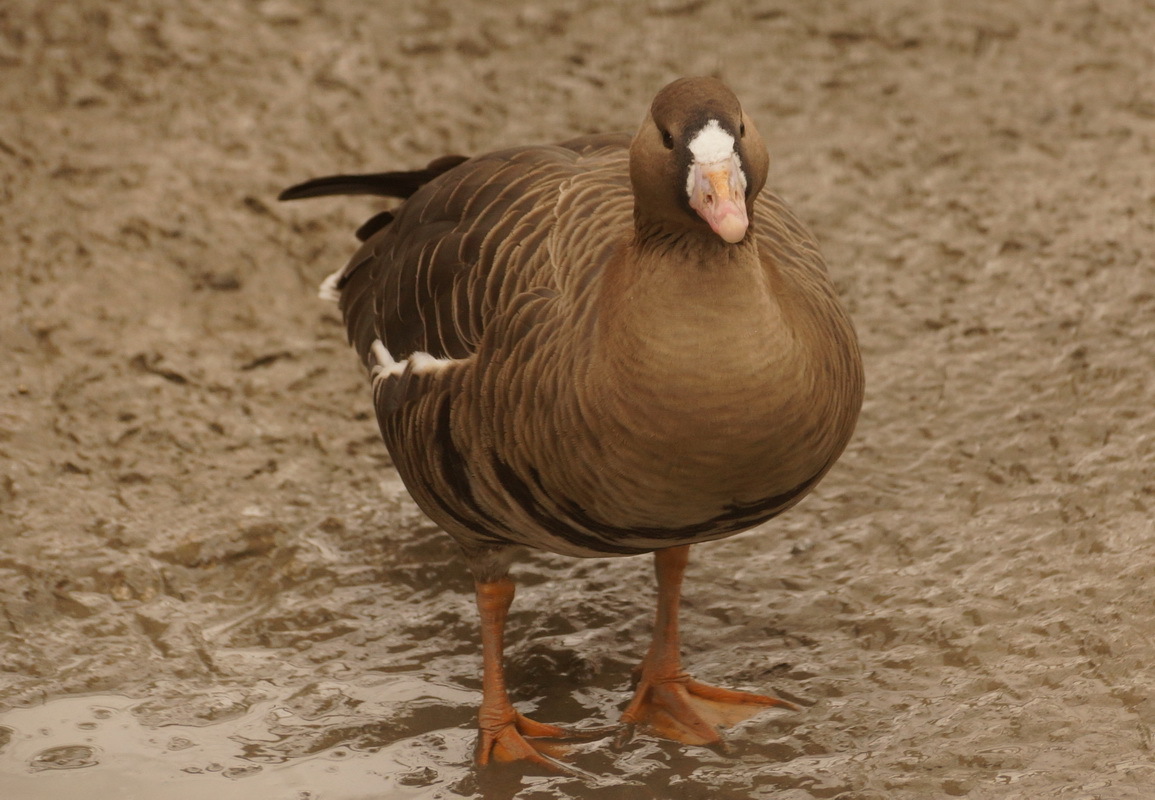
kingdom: Animalia
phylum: Chordata
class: Aves
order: Anseriformes
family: Anatidae
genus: Anser
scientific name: Anser albifrons
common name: Greater white-fronted goose
